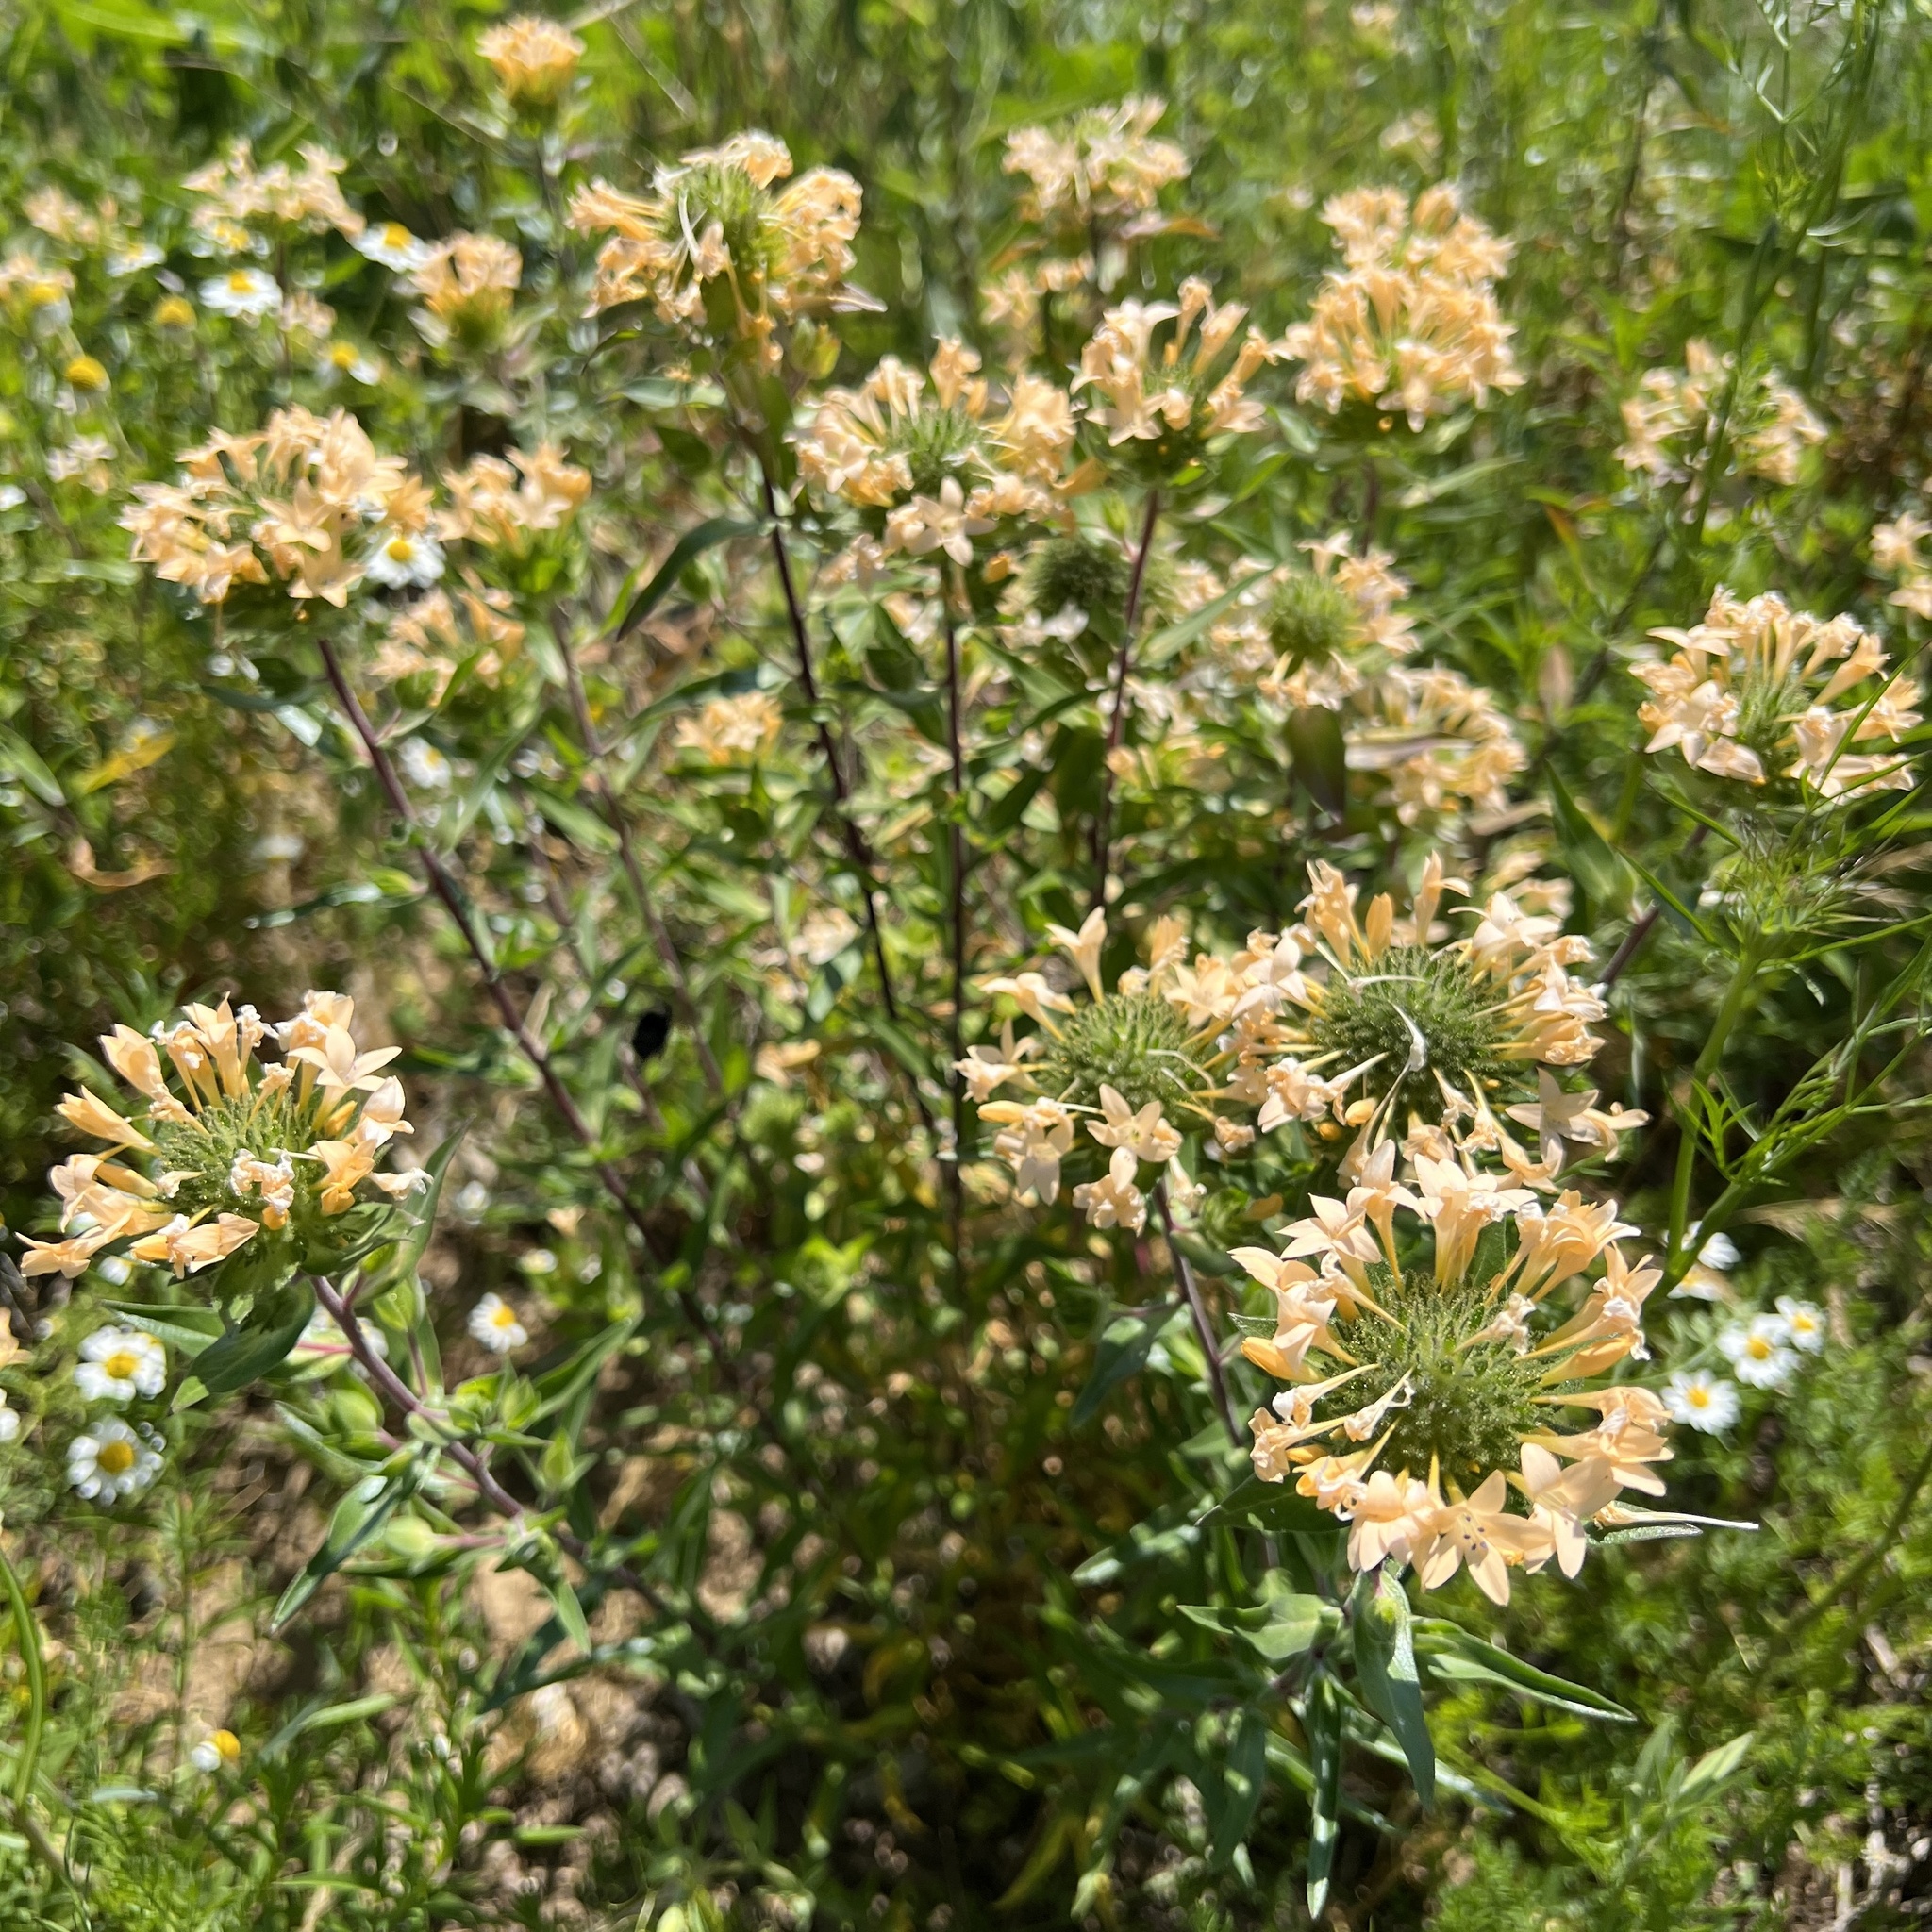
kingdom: Plantae
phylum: Tracheophyta
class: Magnoliopsida
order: Ericales
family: Polemoniaceae
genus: Collomia
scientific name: Collomia grandiflora
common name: California strawflower
